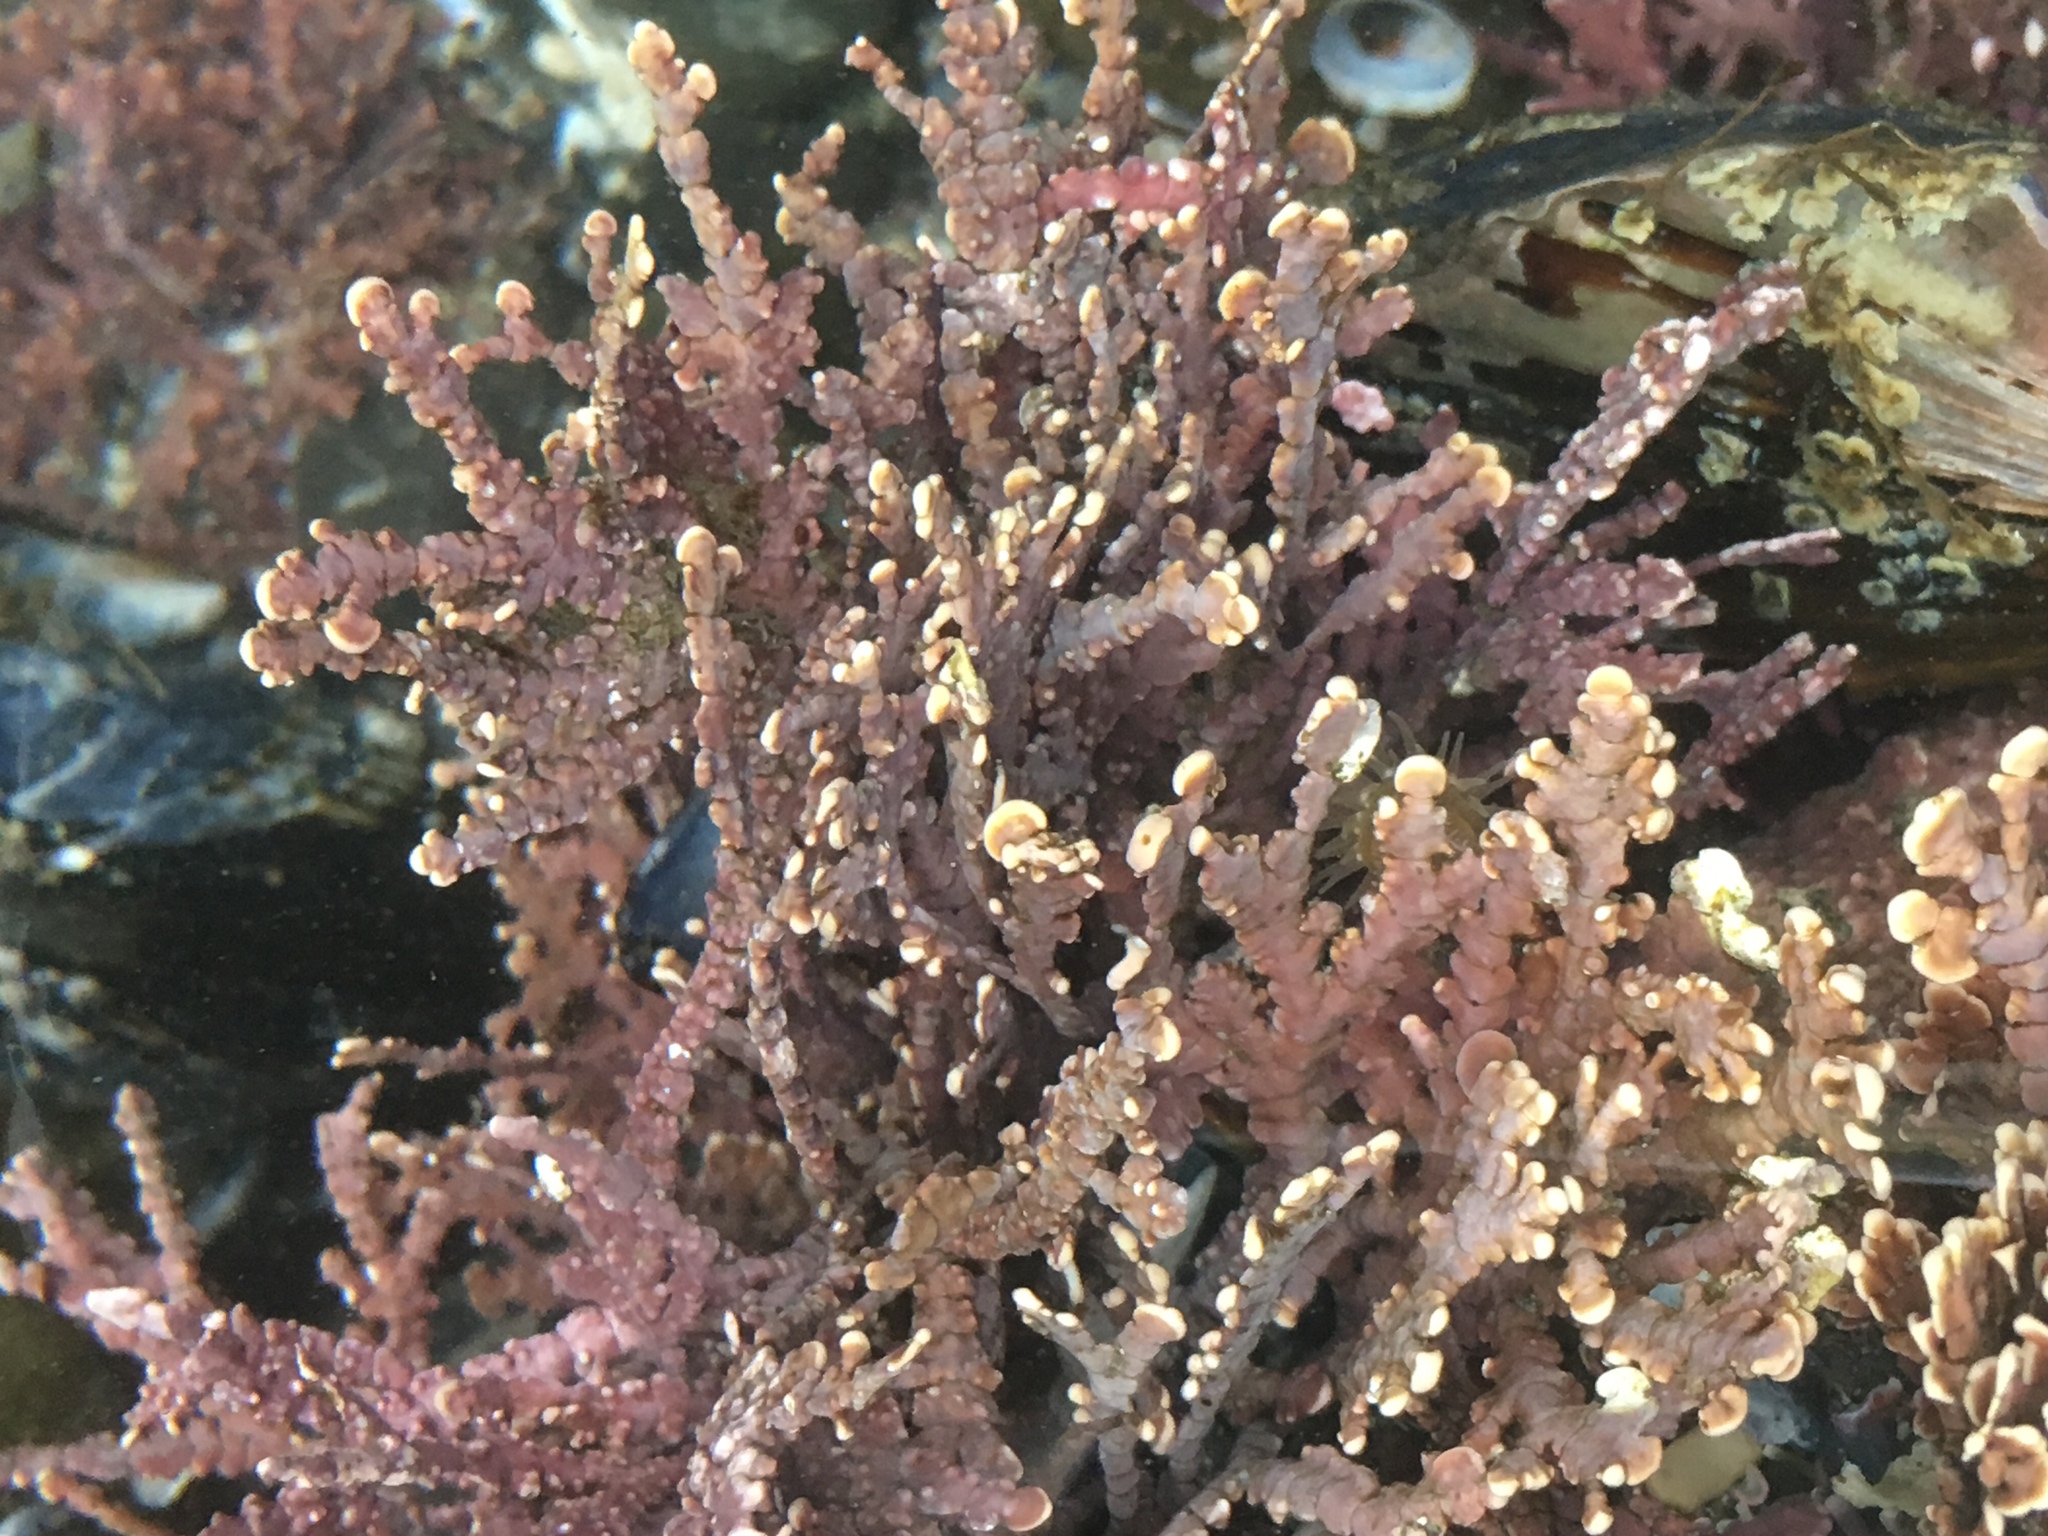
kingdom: Plantae
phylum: Rhodophyta
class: Florideophyceae
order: Corallinales
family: Corallinaceae
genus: Calliarthron
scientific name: Calliarthron tuberculosum
